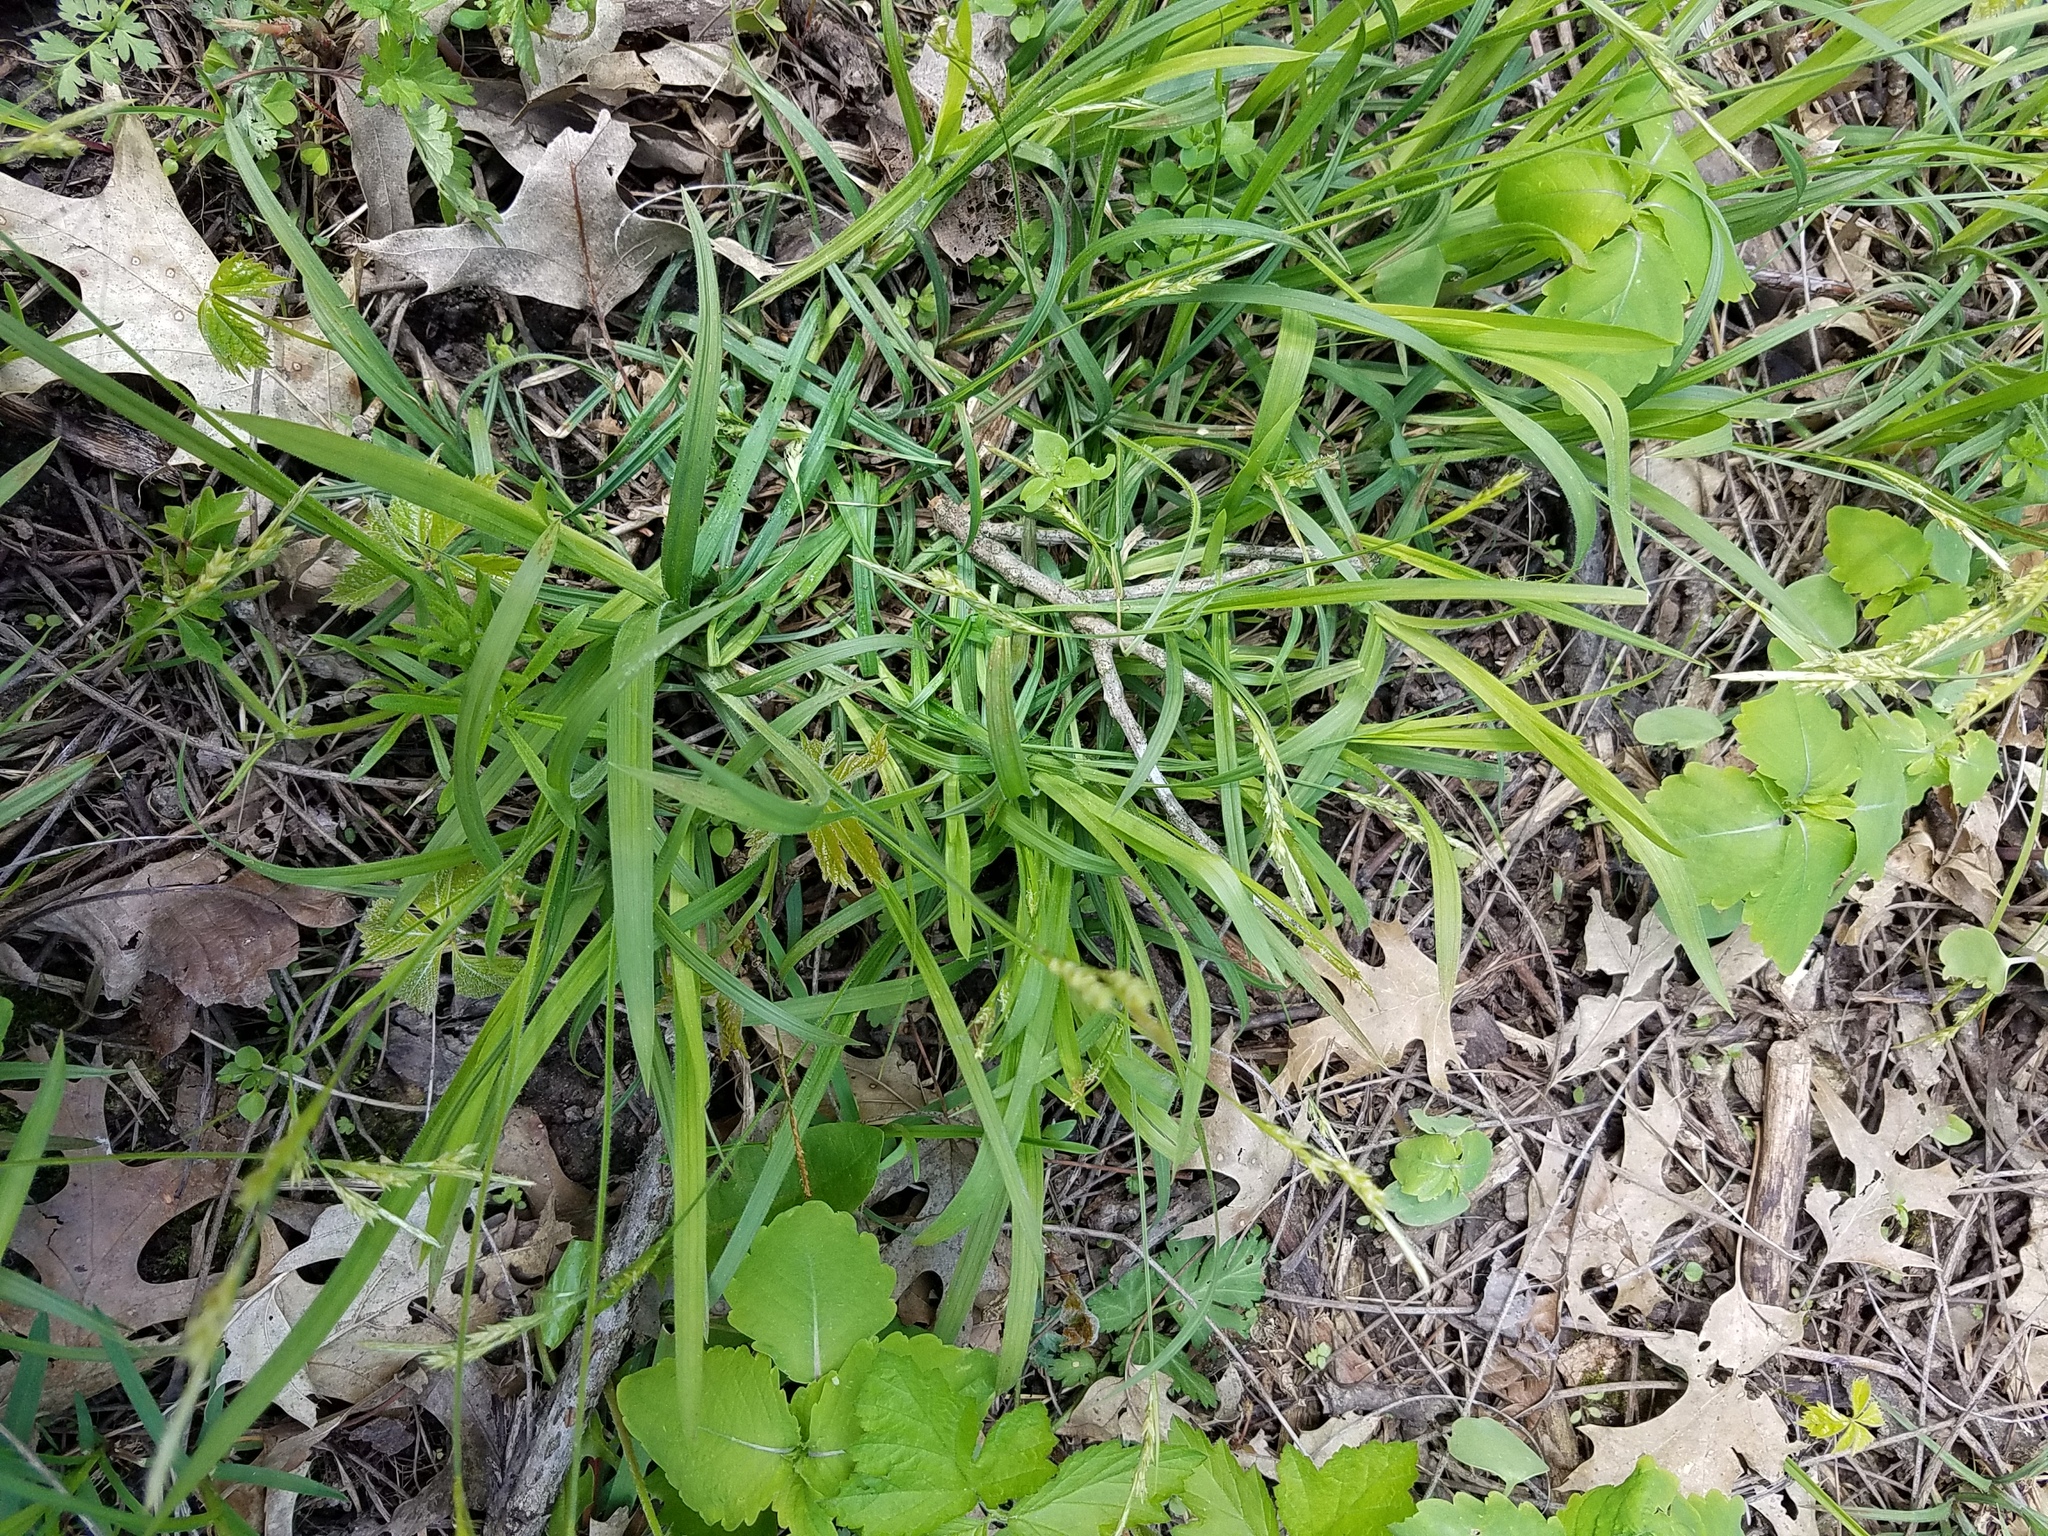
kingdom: Plantae
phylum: Tracheophyta
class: Liliopsida
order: Poales
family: Cyperaceae
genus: Carex
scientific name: Carex hirtifolia
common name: Hairy sedge
